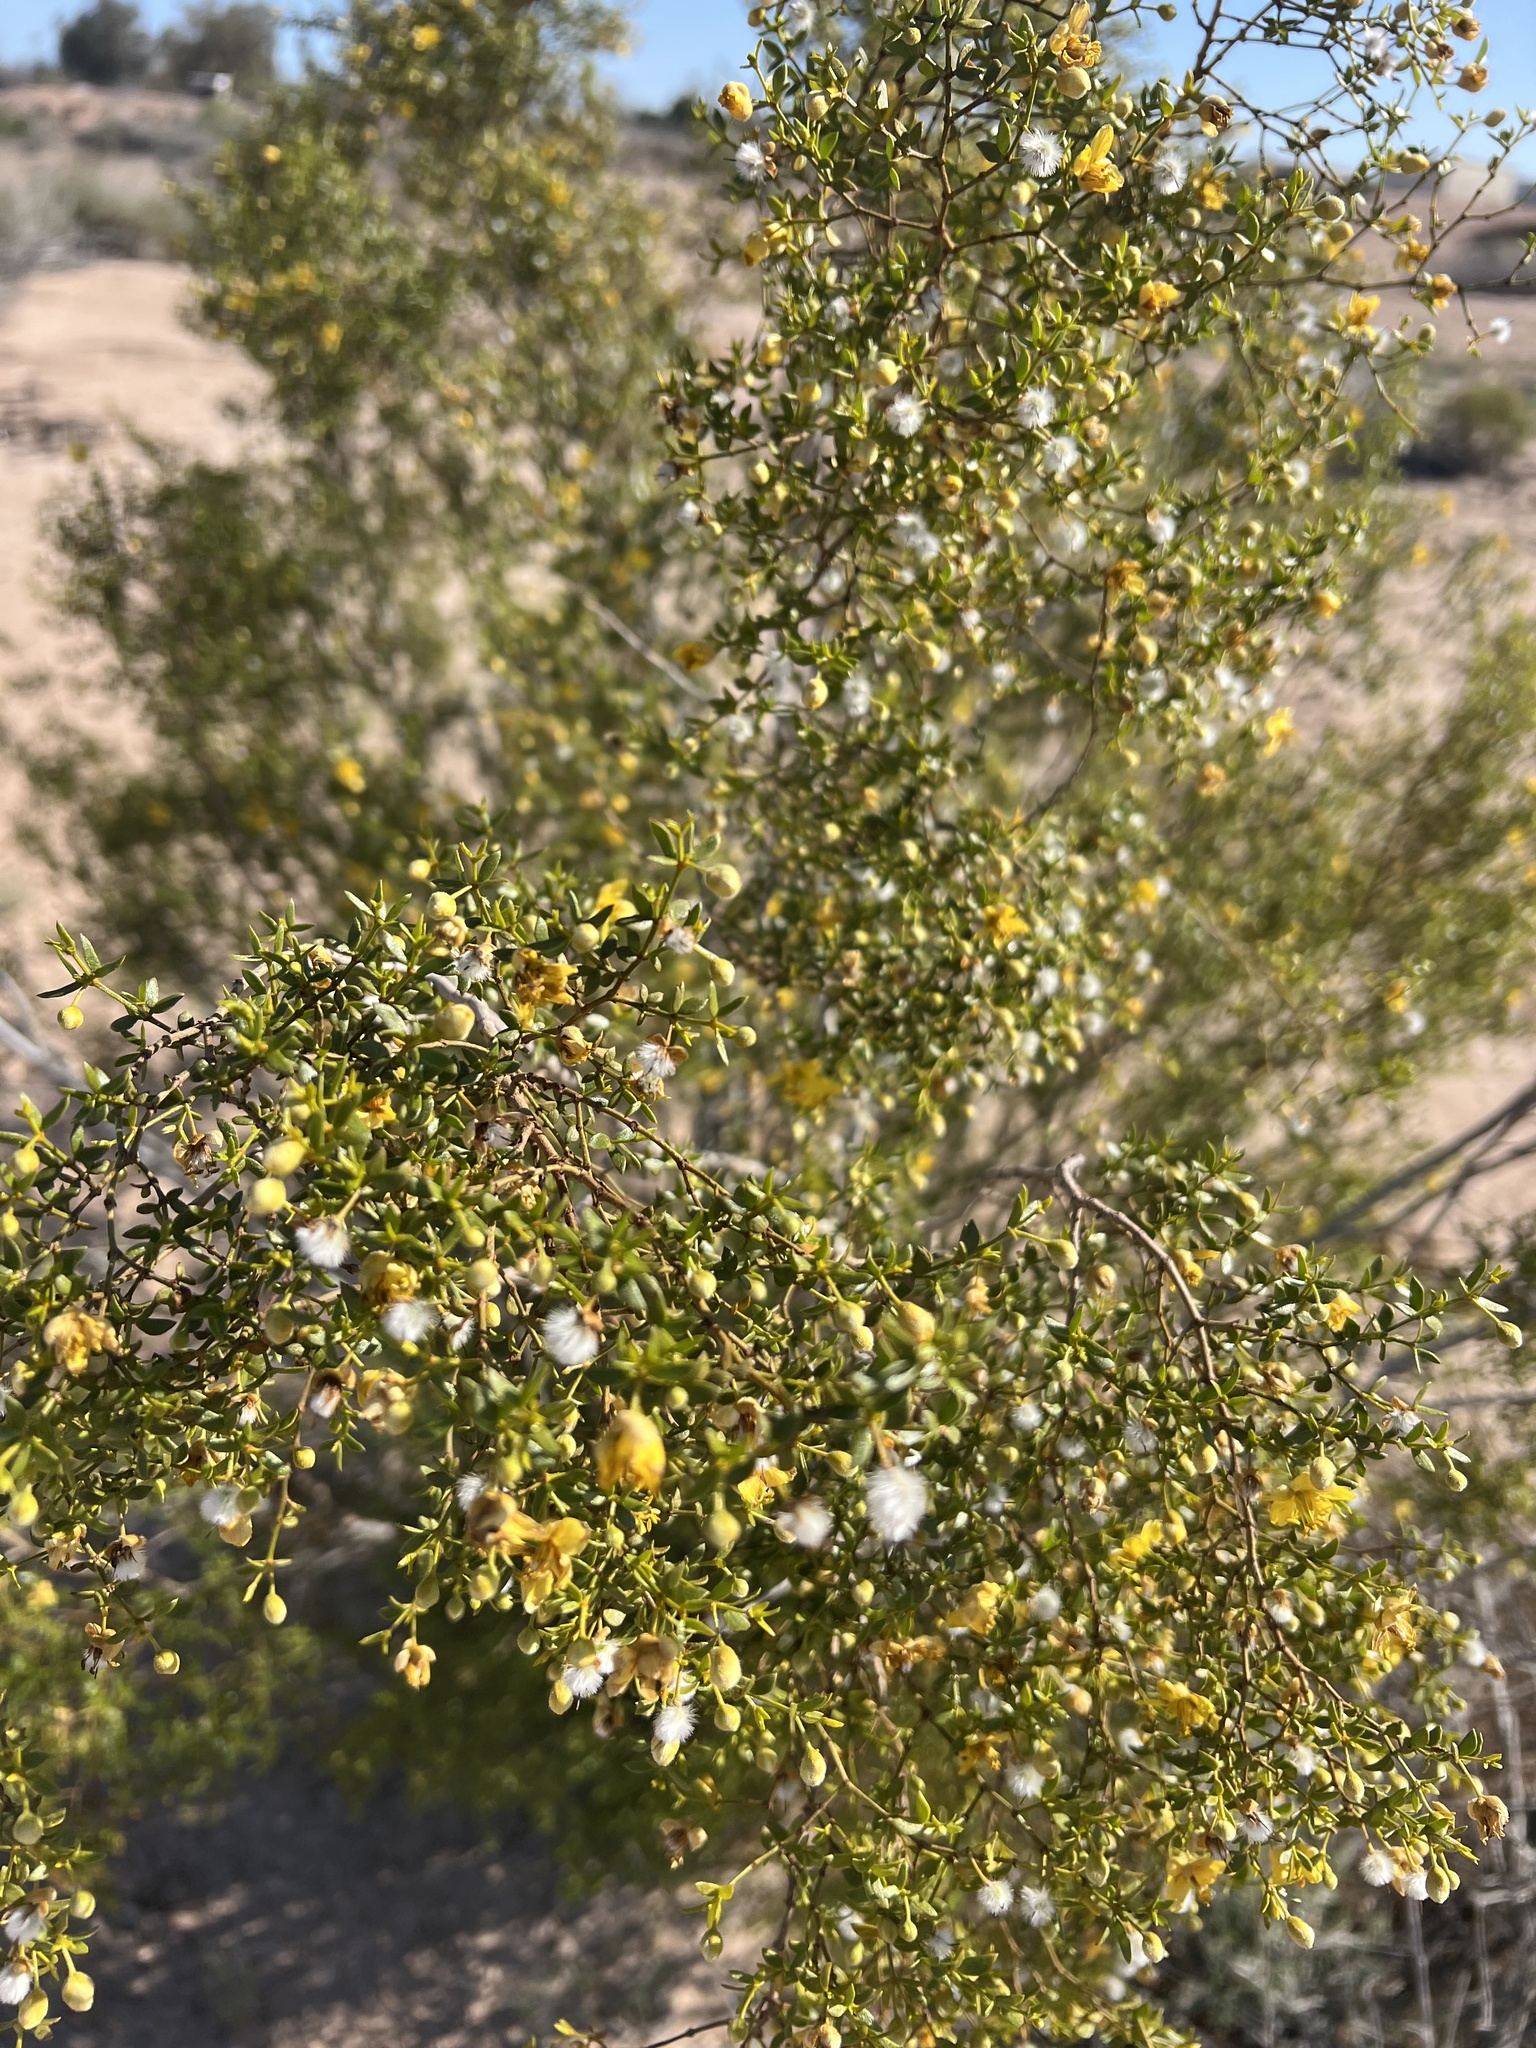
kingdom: Plantae
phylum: Tracheophyta
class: Magnoliopsida
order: Zygophyllales
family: Zygophyllaceae
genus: Larrea
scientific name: Larrea tridentata
